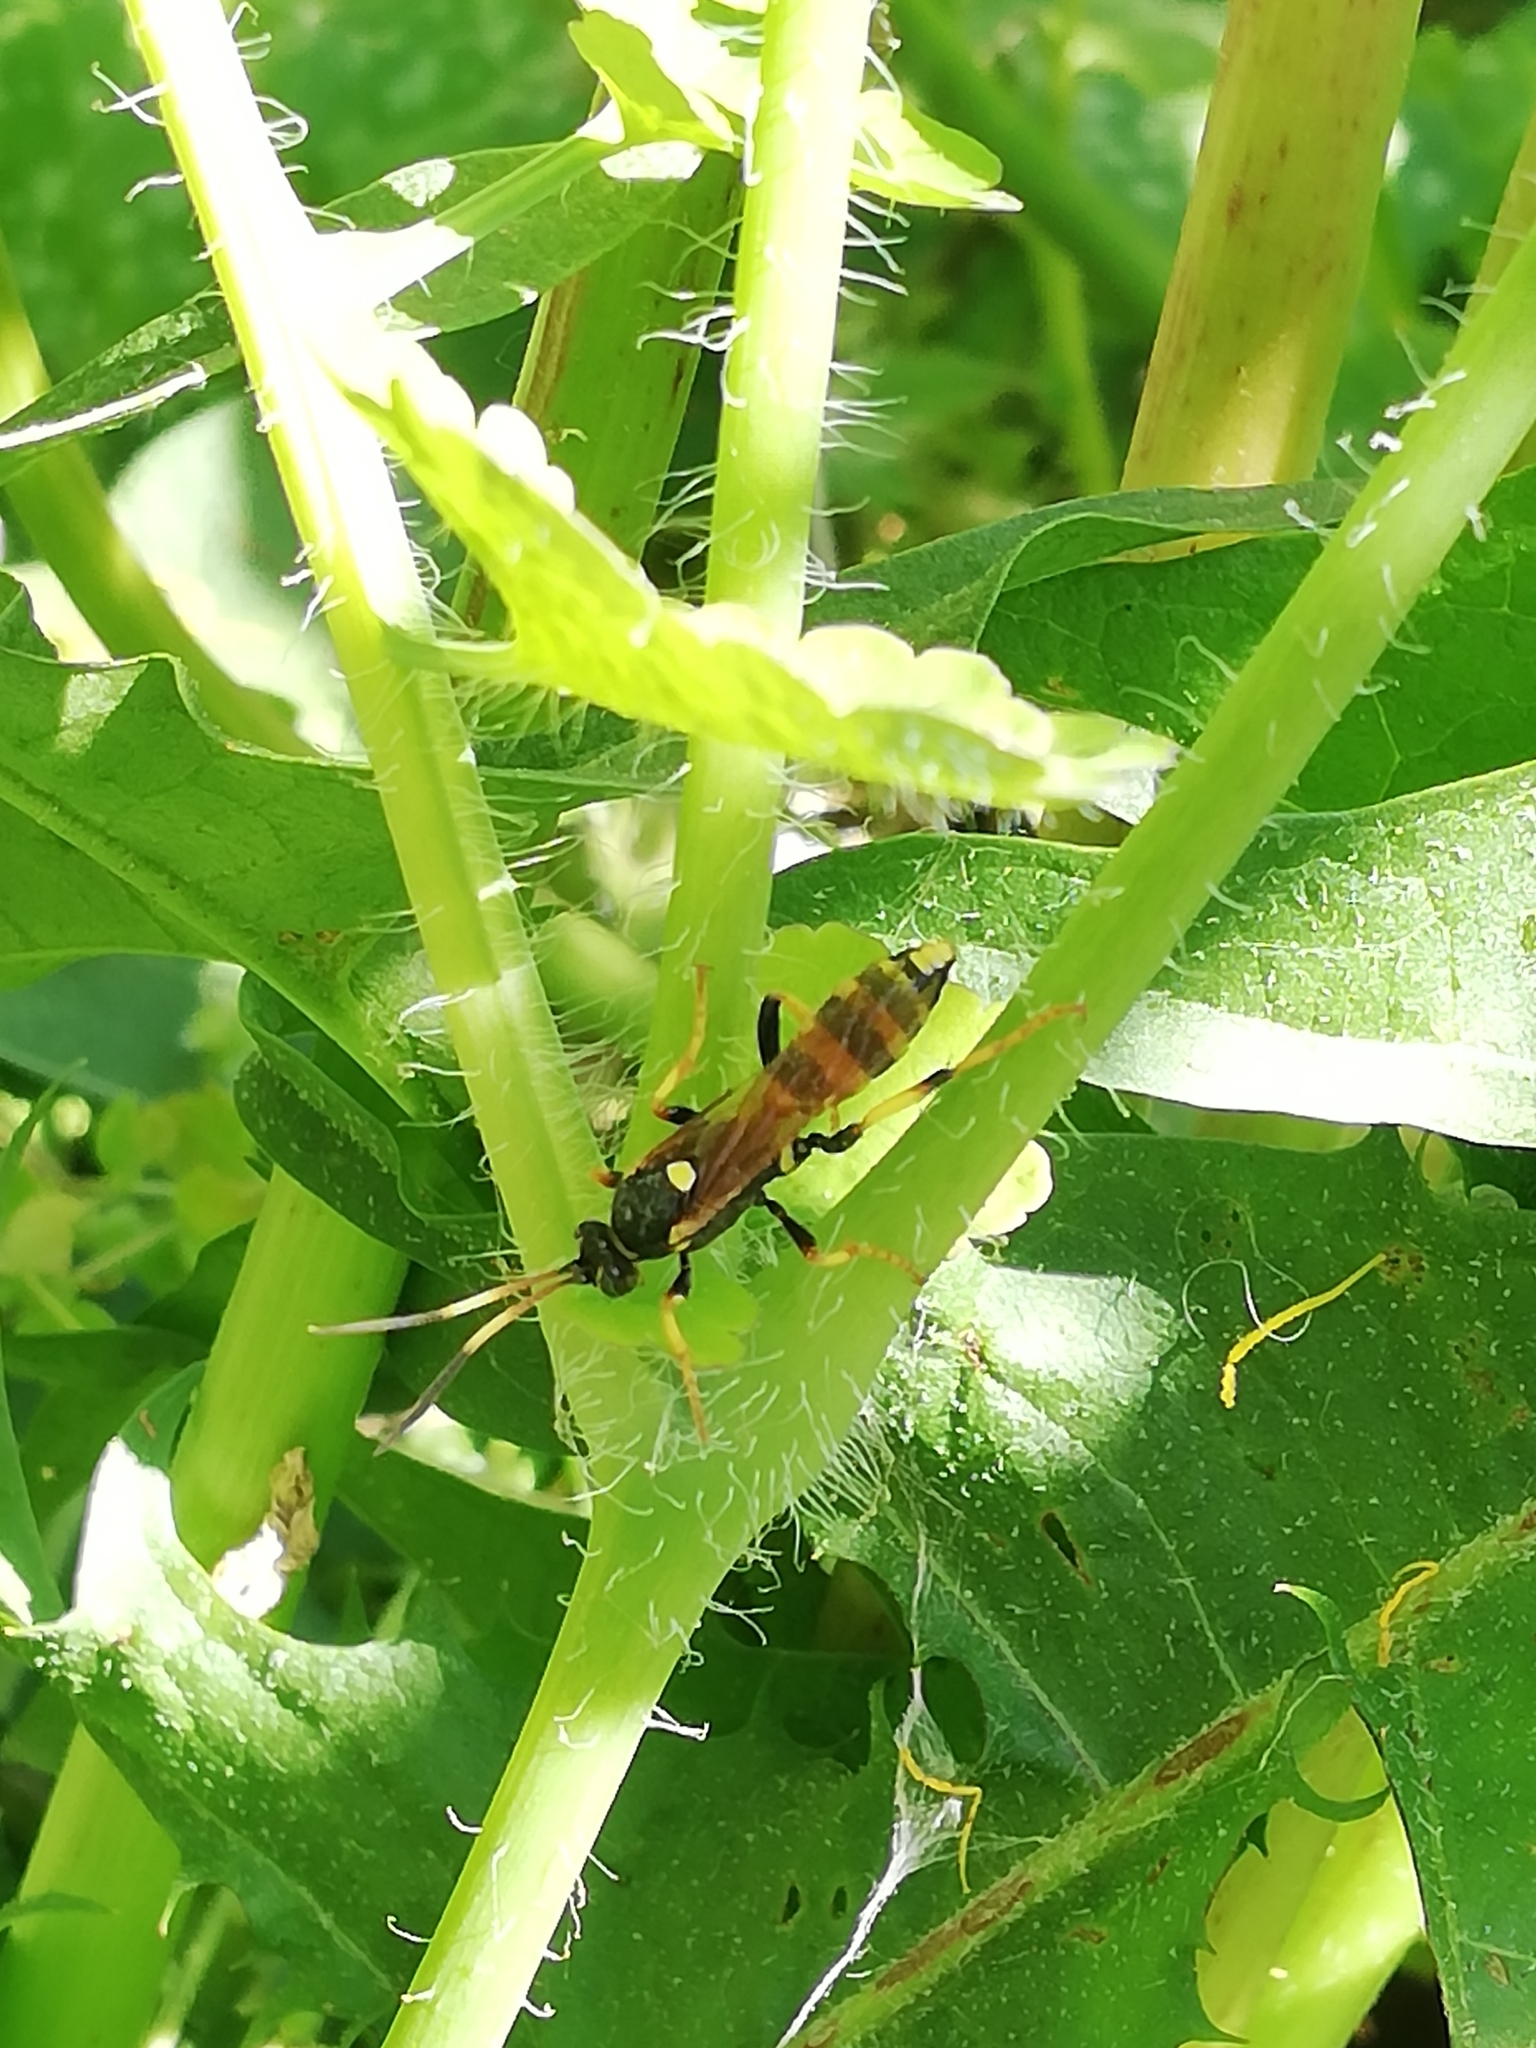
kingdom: Animalia
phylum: Arthropoda
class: Insecta
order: Hymenoptera
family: Ichneumonidae
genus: Ichneumon
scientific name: Ichneumon xanthorius
